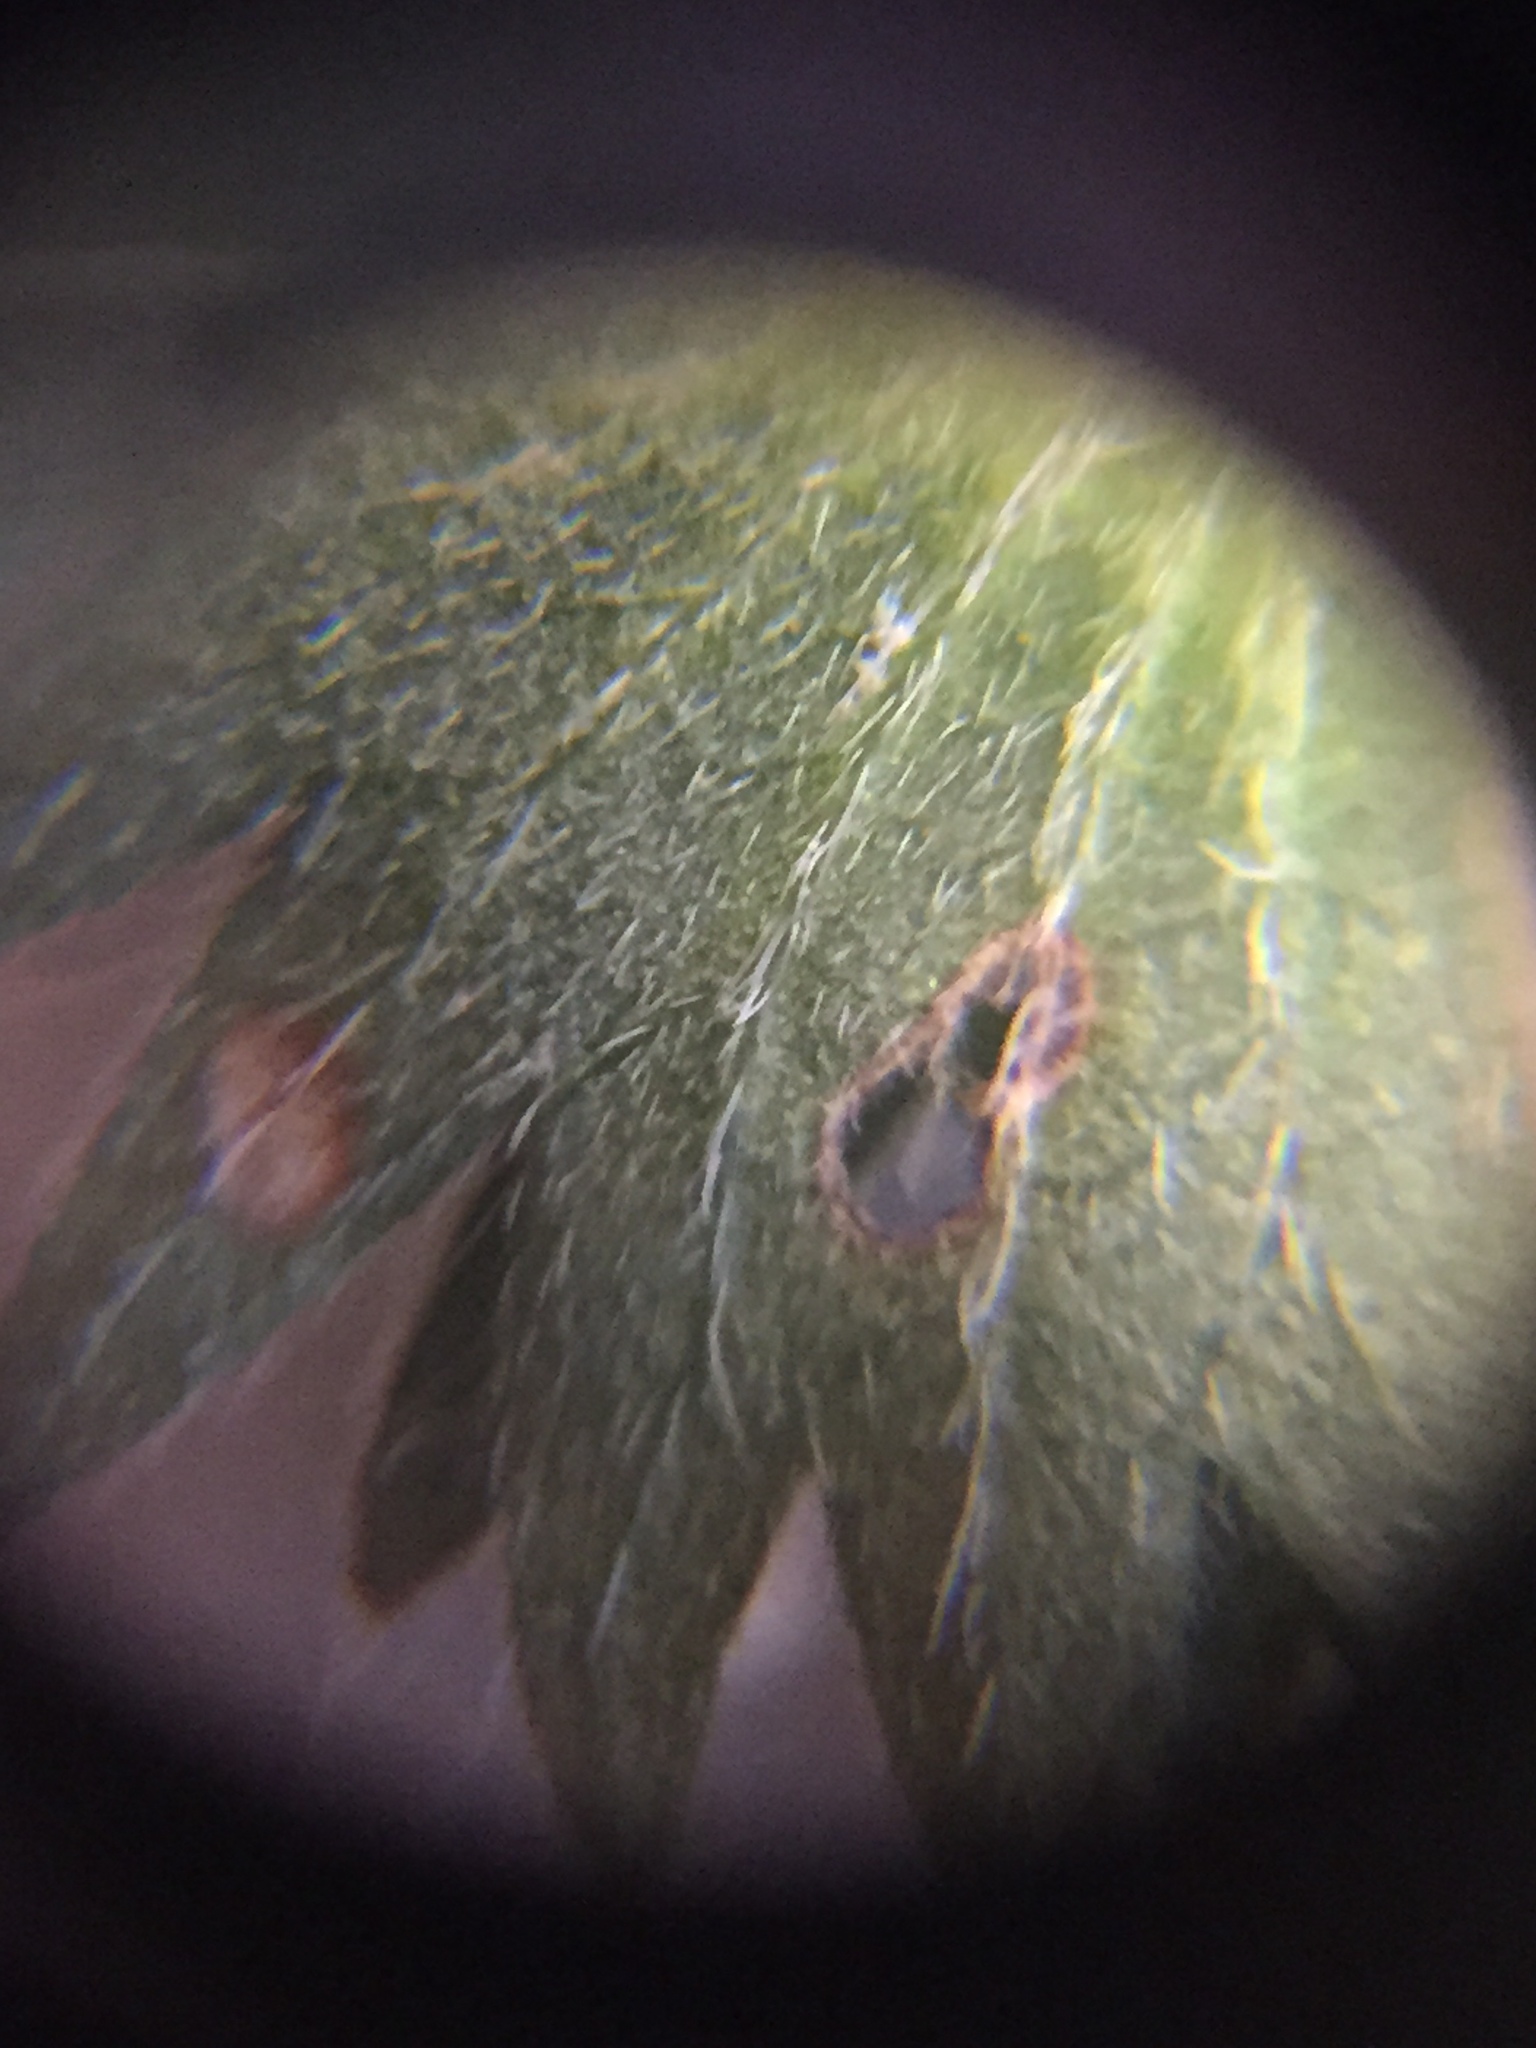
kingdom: Plantae
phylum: Tracheophyta
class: Magnoliopsida
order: Malpighiales
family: Euphorbiaceae
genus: Acalypha
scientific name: Acalypha virginica
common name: Virginia copperleaf
